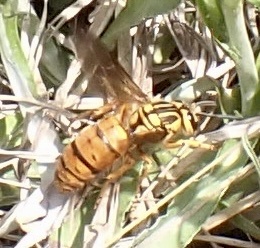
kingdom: Animalia
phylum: Arthropoda
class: Insecta
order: Hymenoptera
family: Vespidae
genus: Vespula
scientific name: Vespula squamosa
